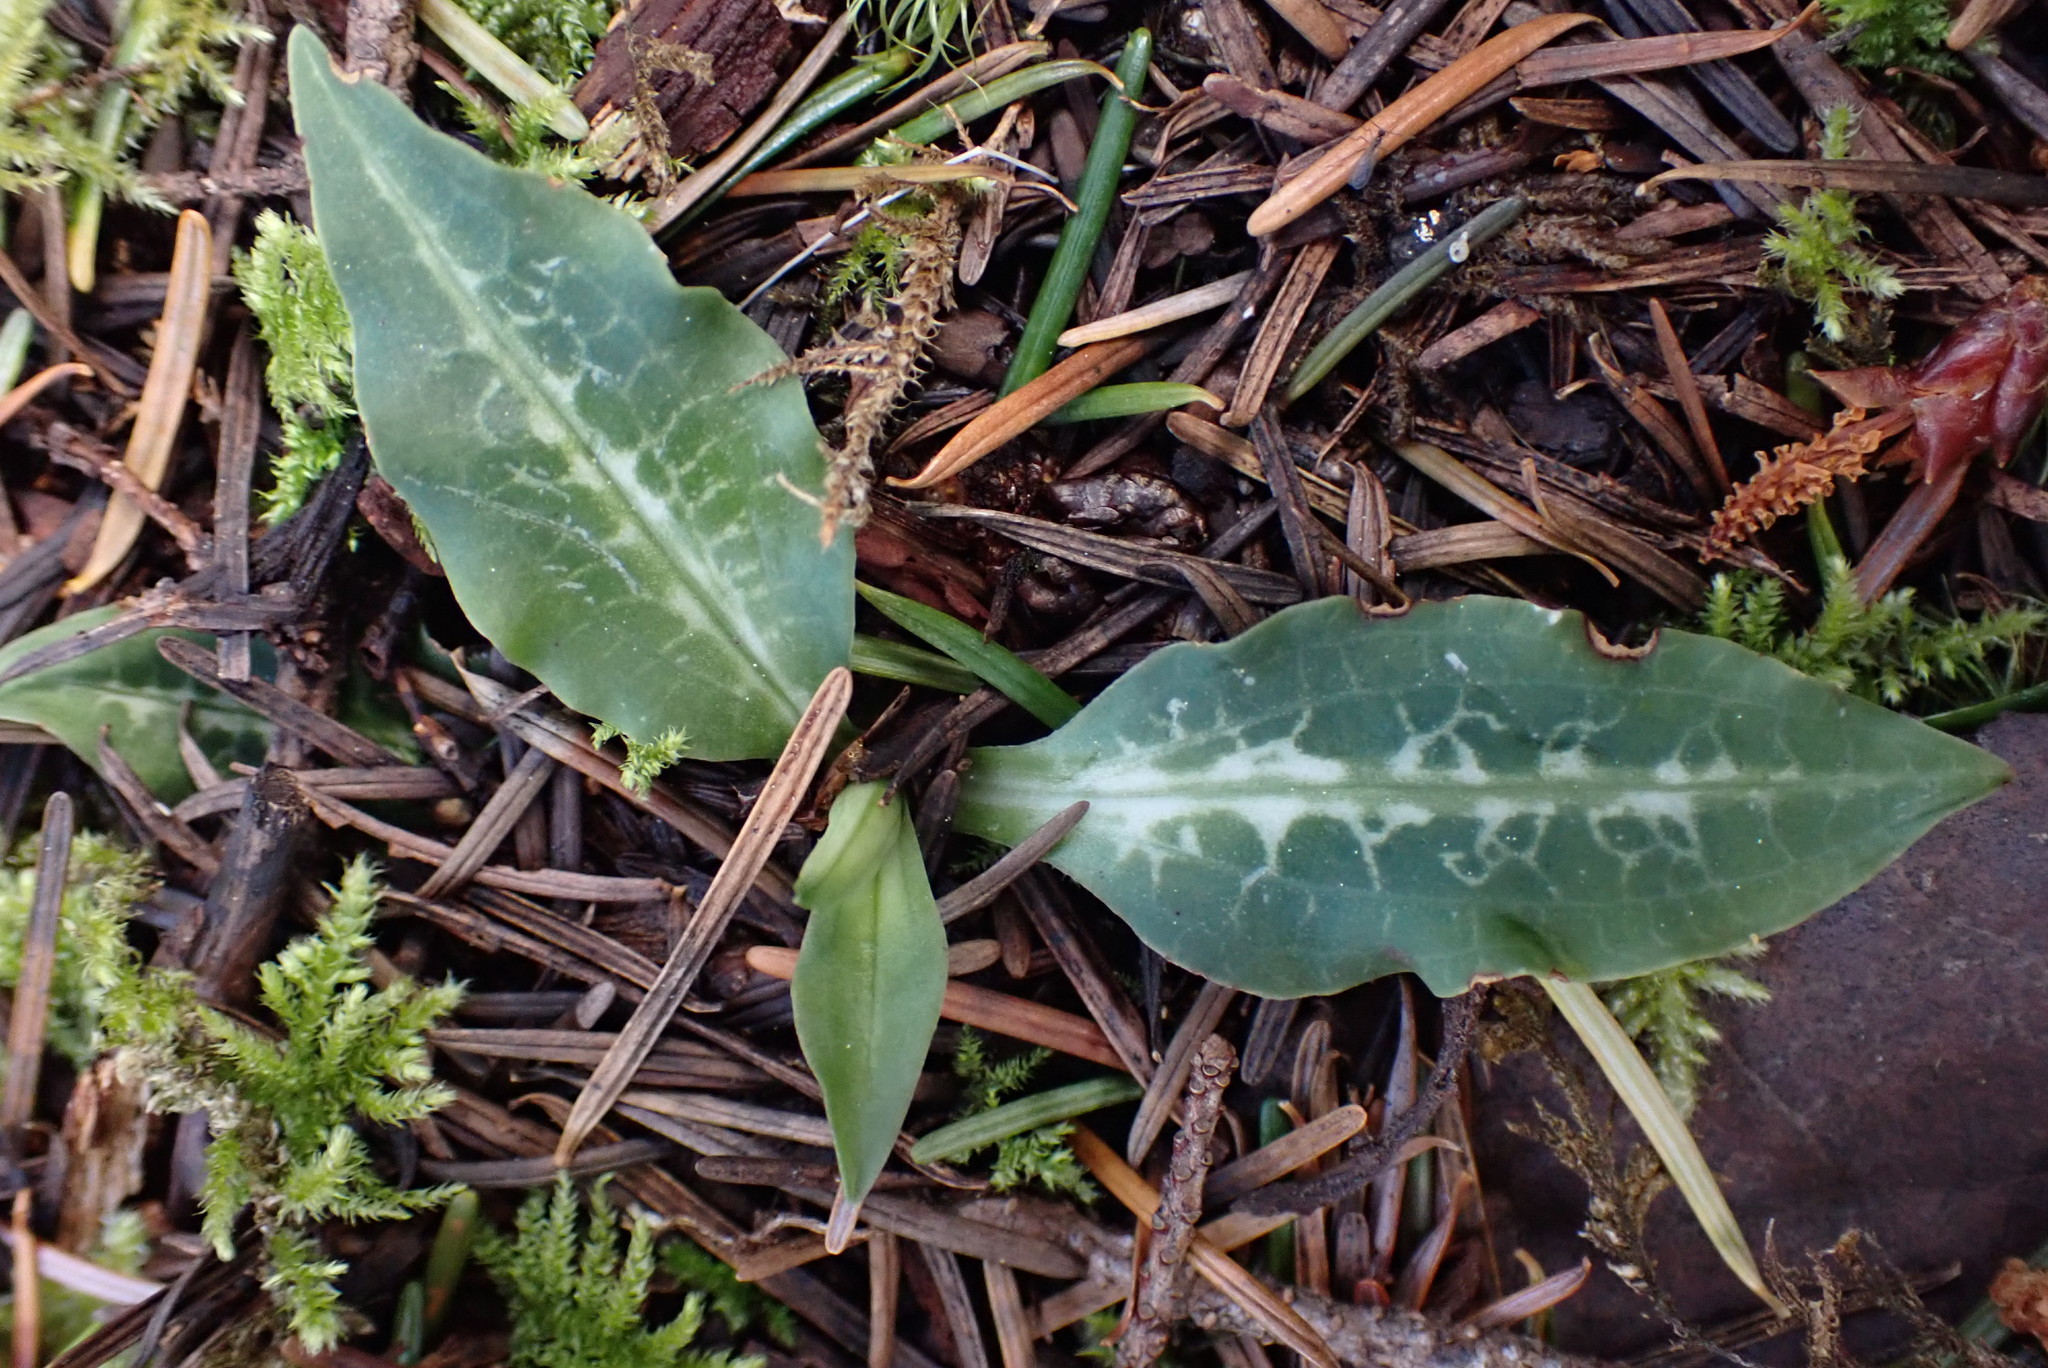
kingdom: Plantae
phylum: Tracheophyta
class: Liliopsida
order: Asparagales
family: Orchidaceae
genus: Goodyera
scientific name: Goodyera oblongifolia
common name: Giant rattlesnake-plantain
